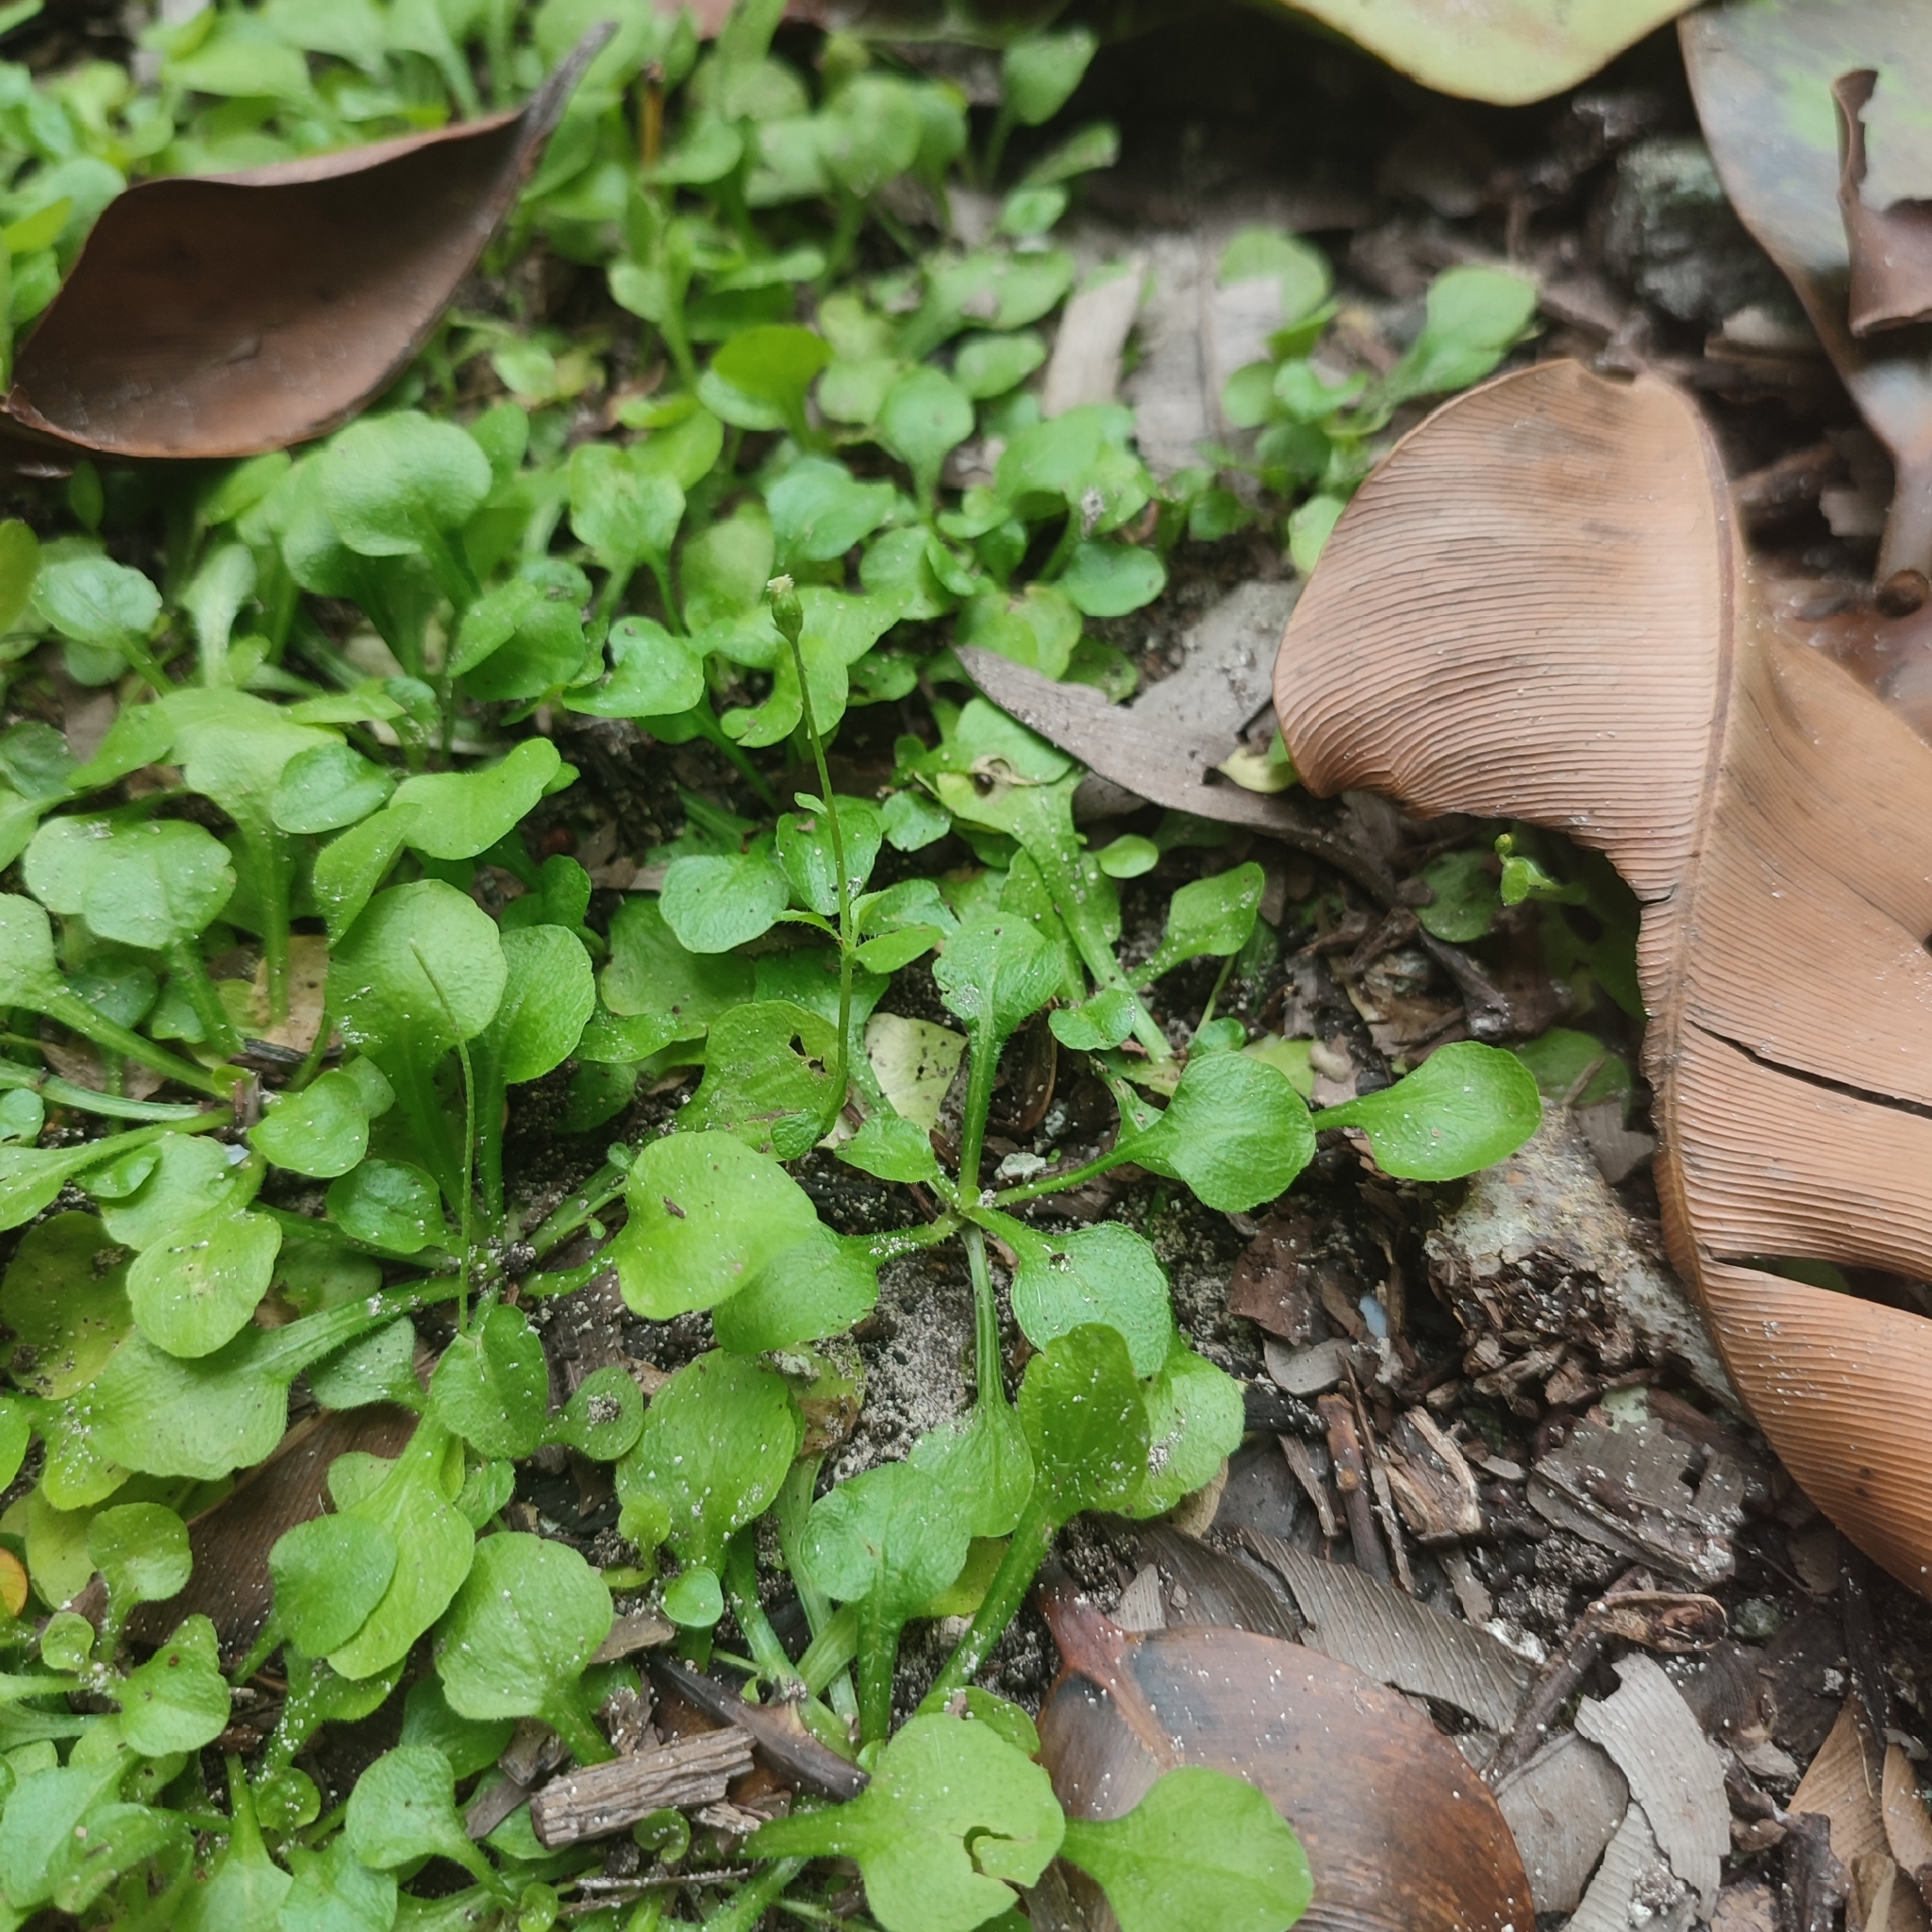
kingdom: Plantae
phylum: Tracheophyta
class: Magnoliopsida
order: Asterales
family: Asteraceae
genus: Erigeron
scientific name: Erigeron bellioides
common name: Bellorita
